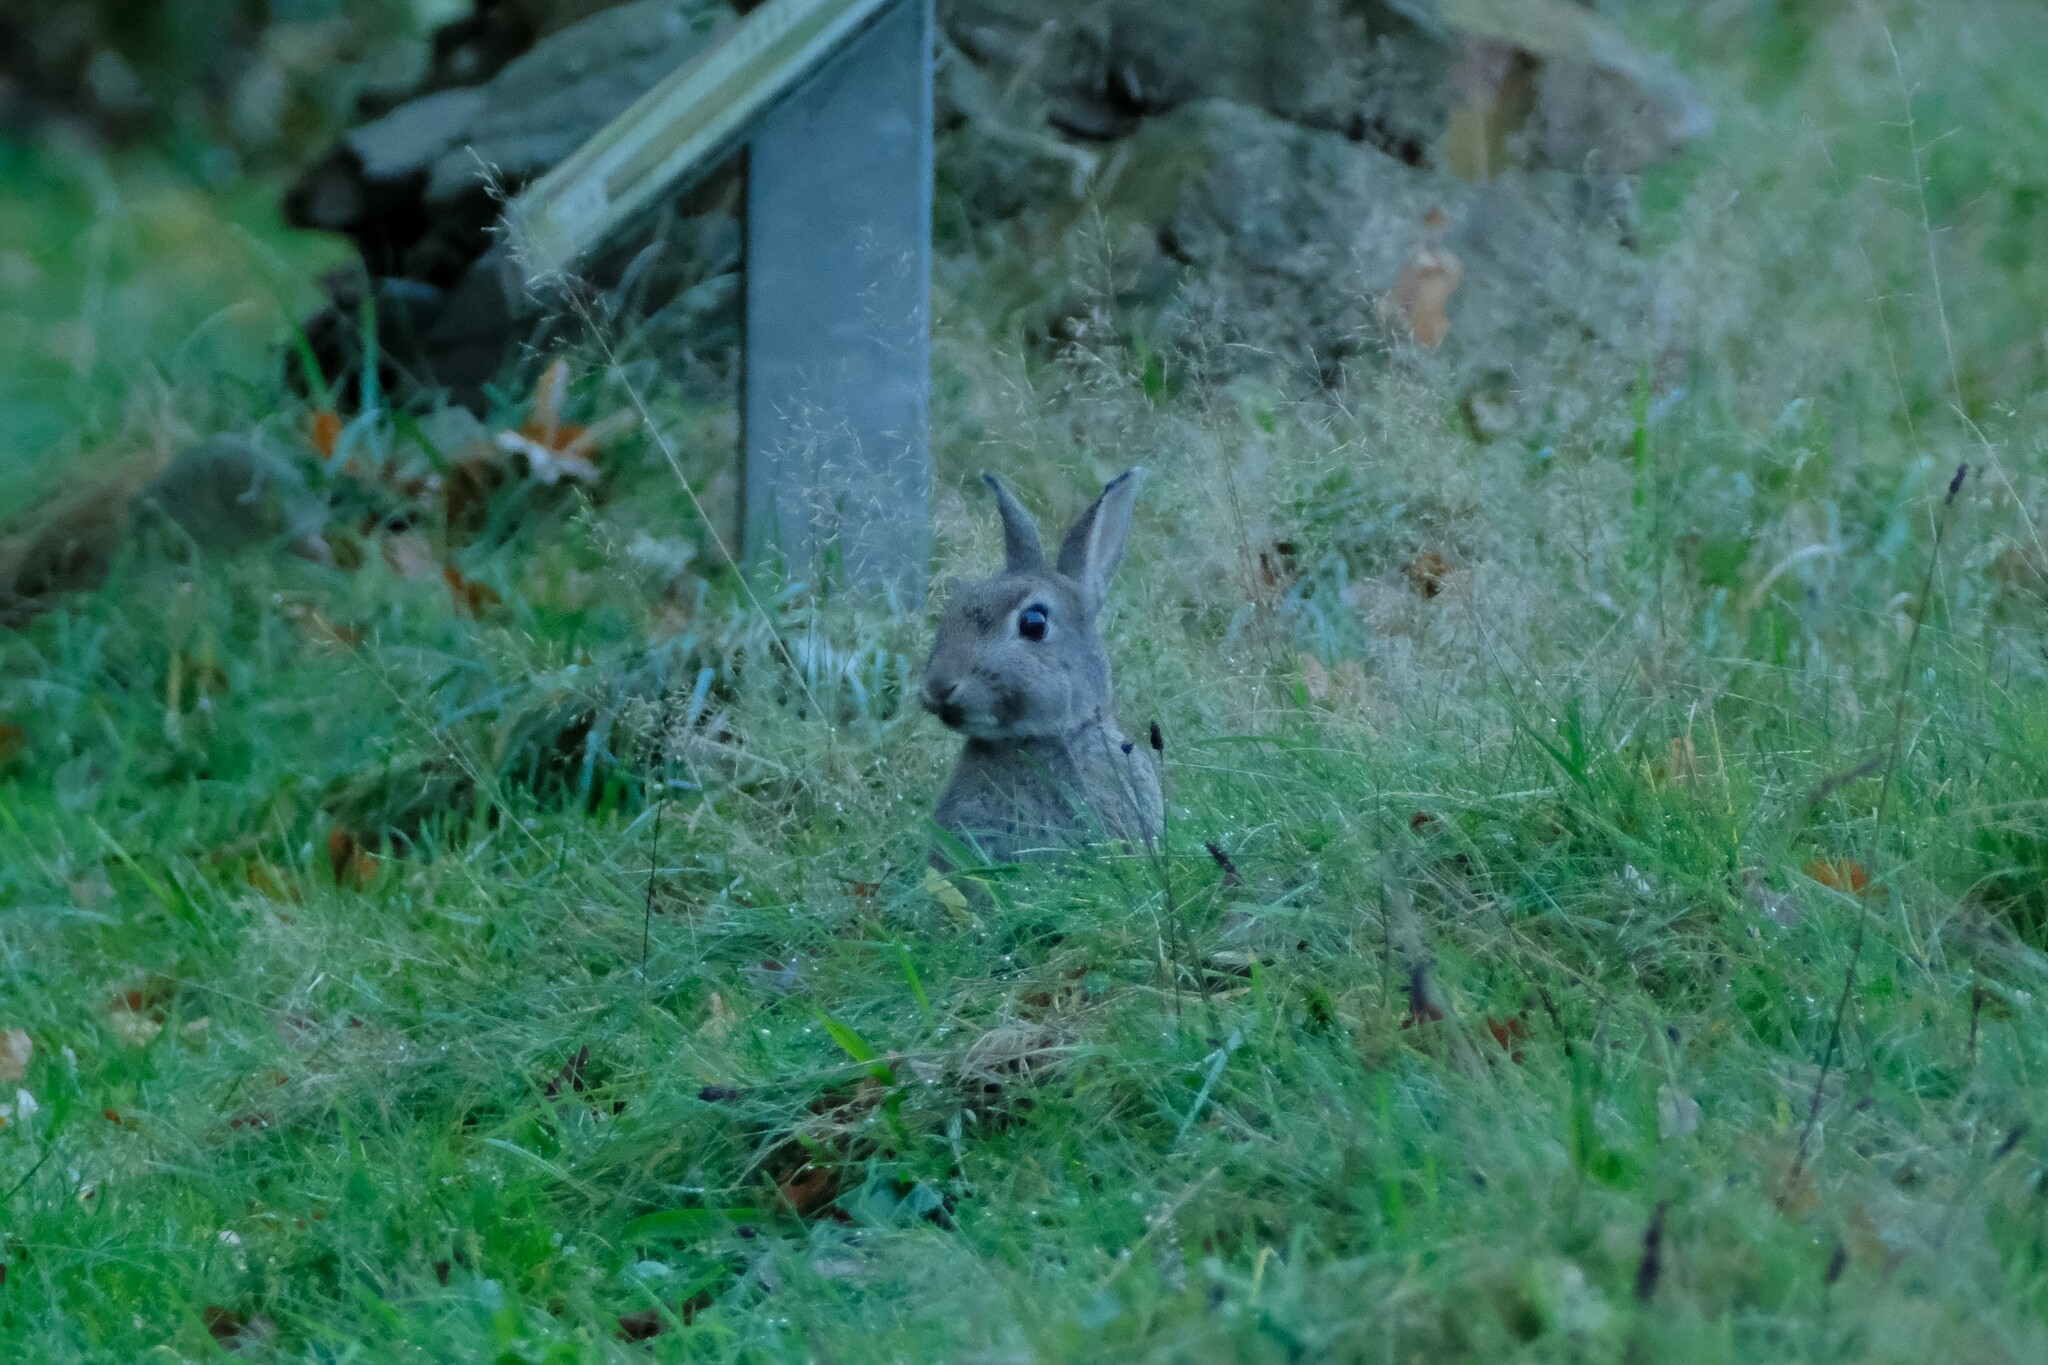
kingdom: Animalia
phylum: Chordata
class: Mammalia
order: Lagomorpha
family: Leporidae
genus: Oryctolagus
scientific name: Oryctolagus cuniculus
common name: European rabbit
